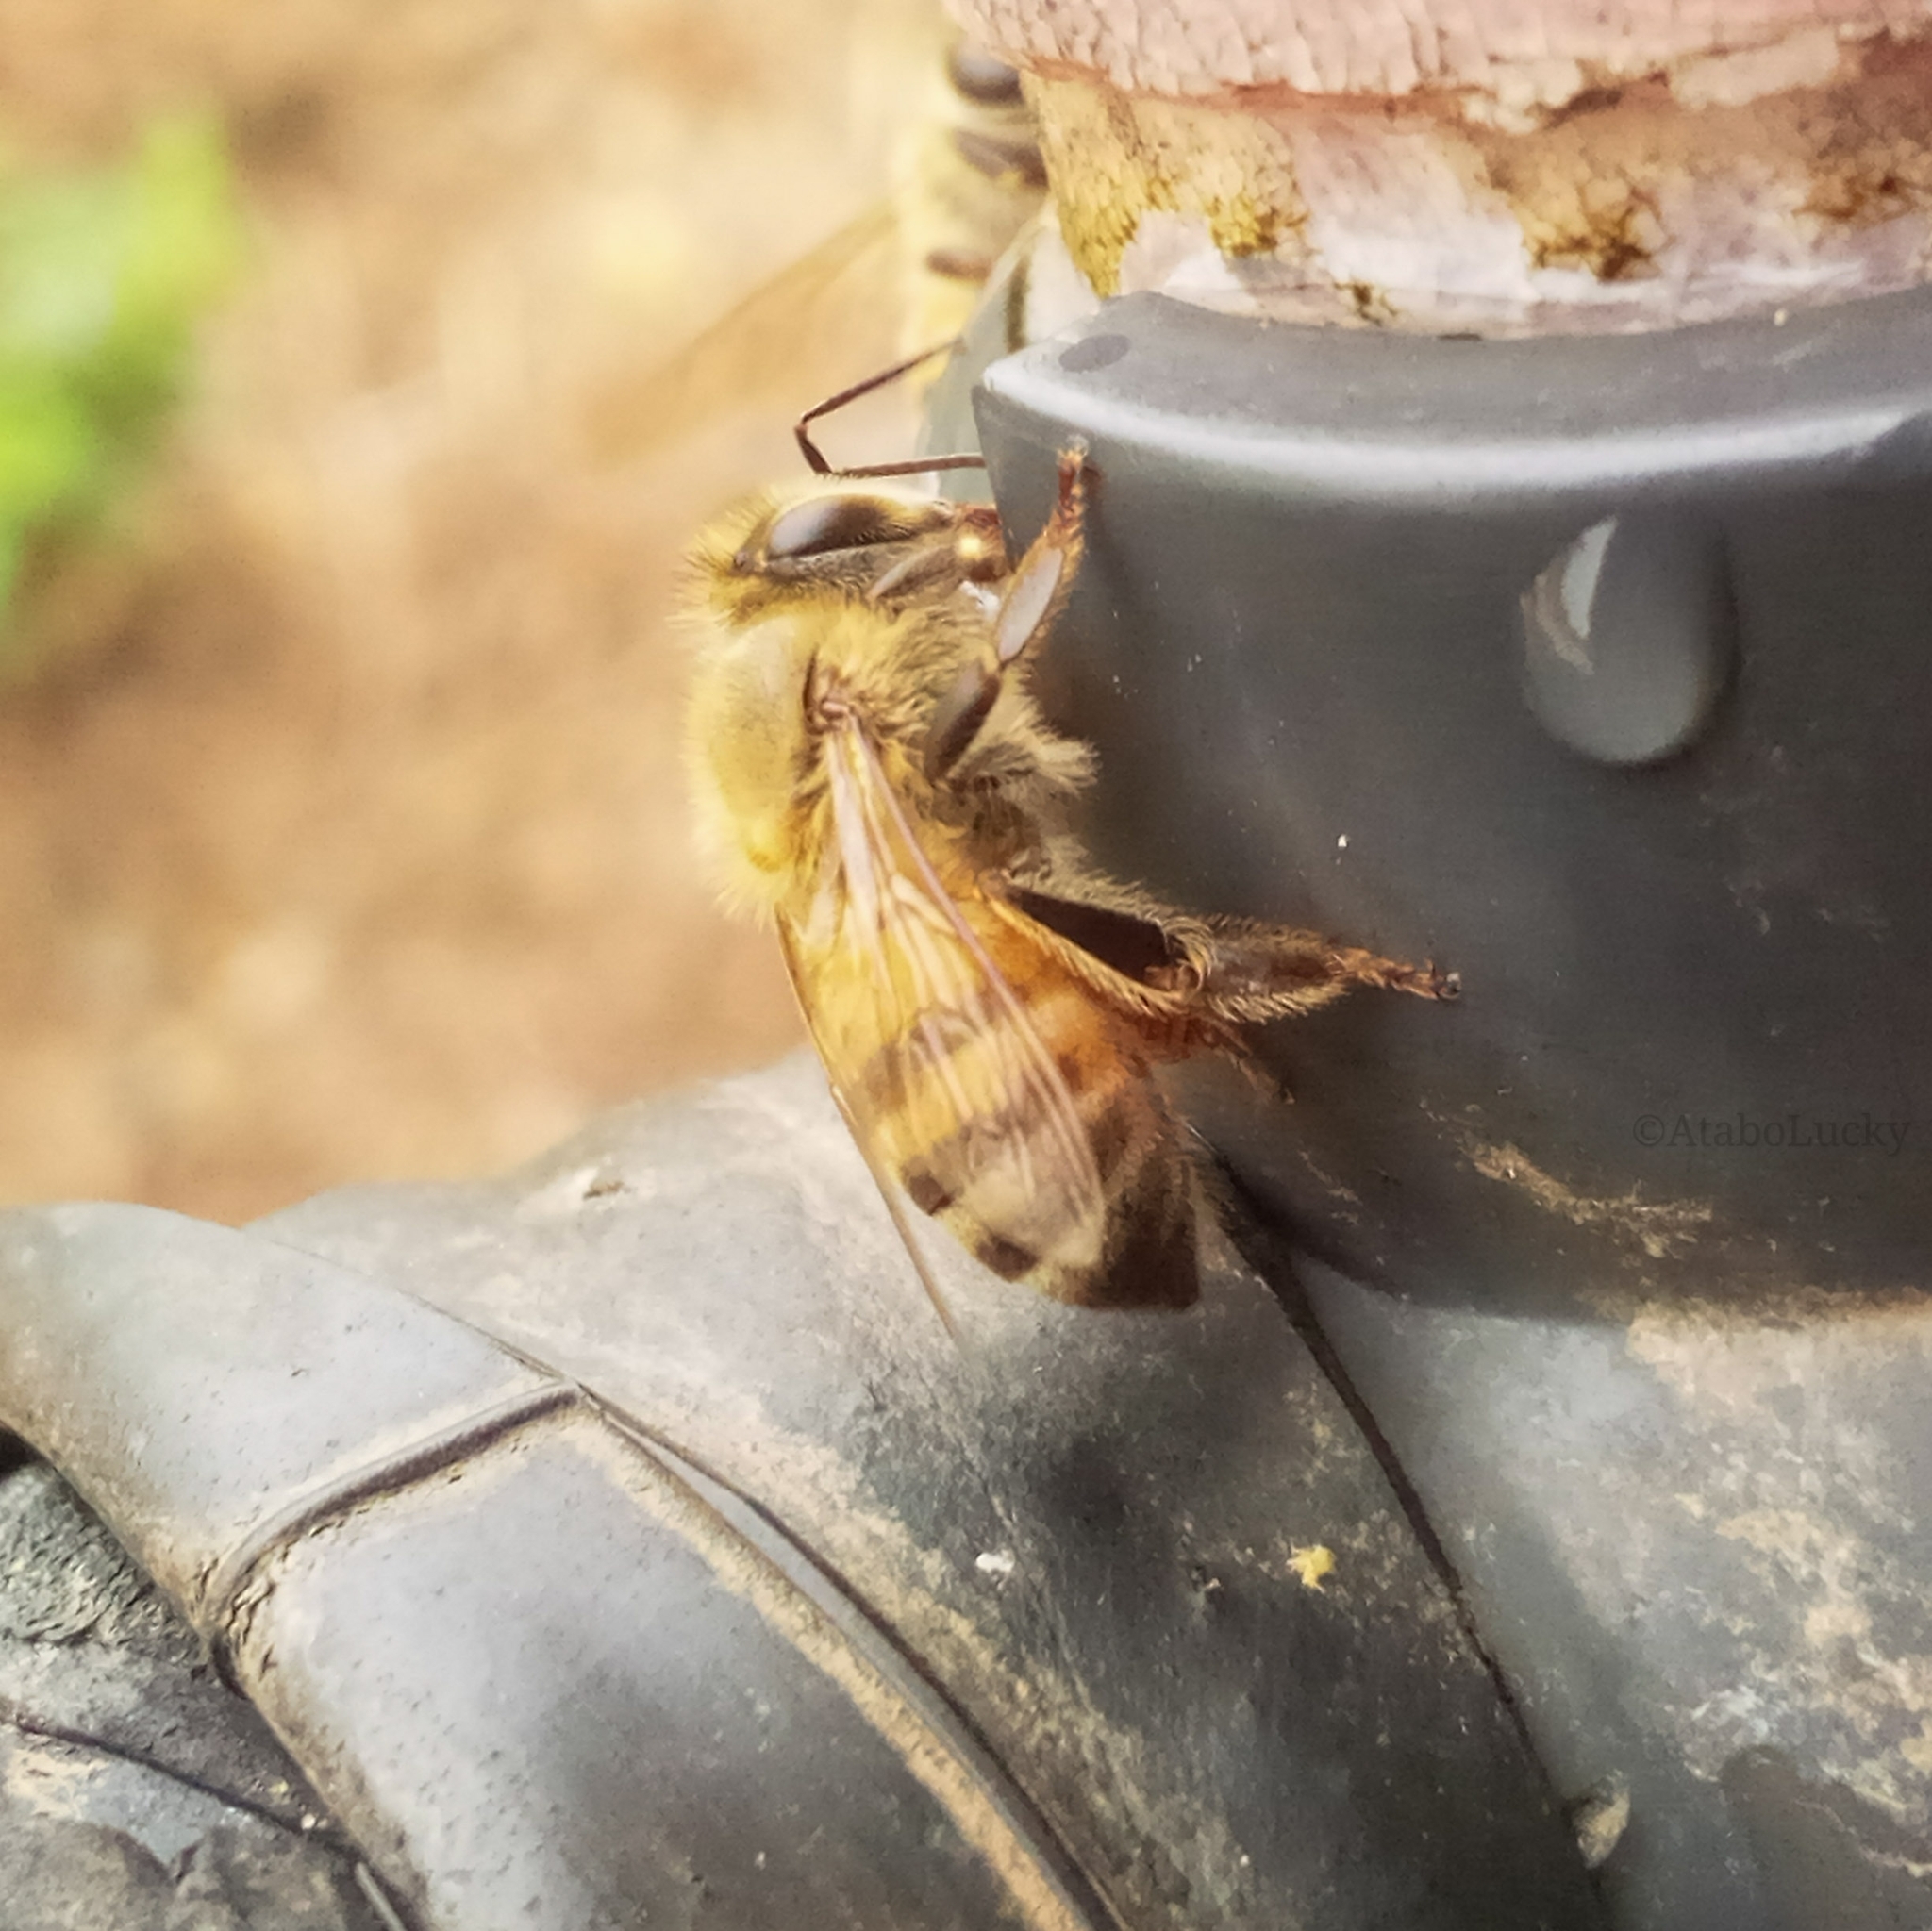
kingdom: Animalia
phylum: Arthropoda
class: Insecta
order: Hymenoptera
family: Apidae
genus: Apis
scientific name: Apis mellifera
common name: Honey bee
